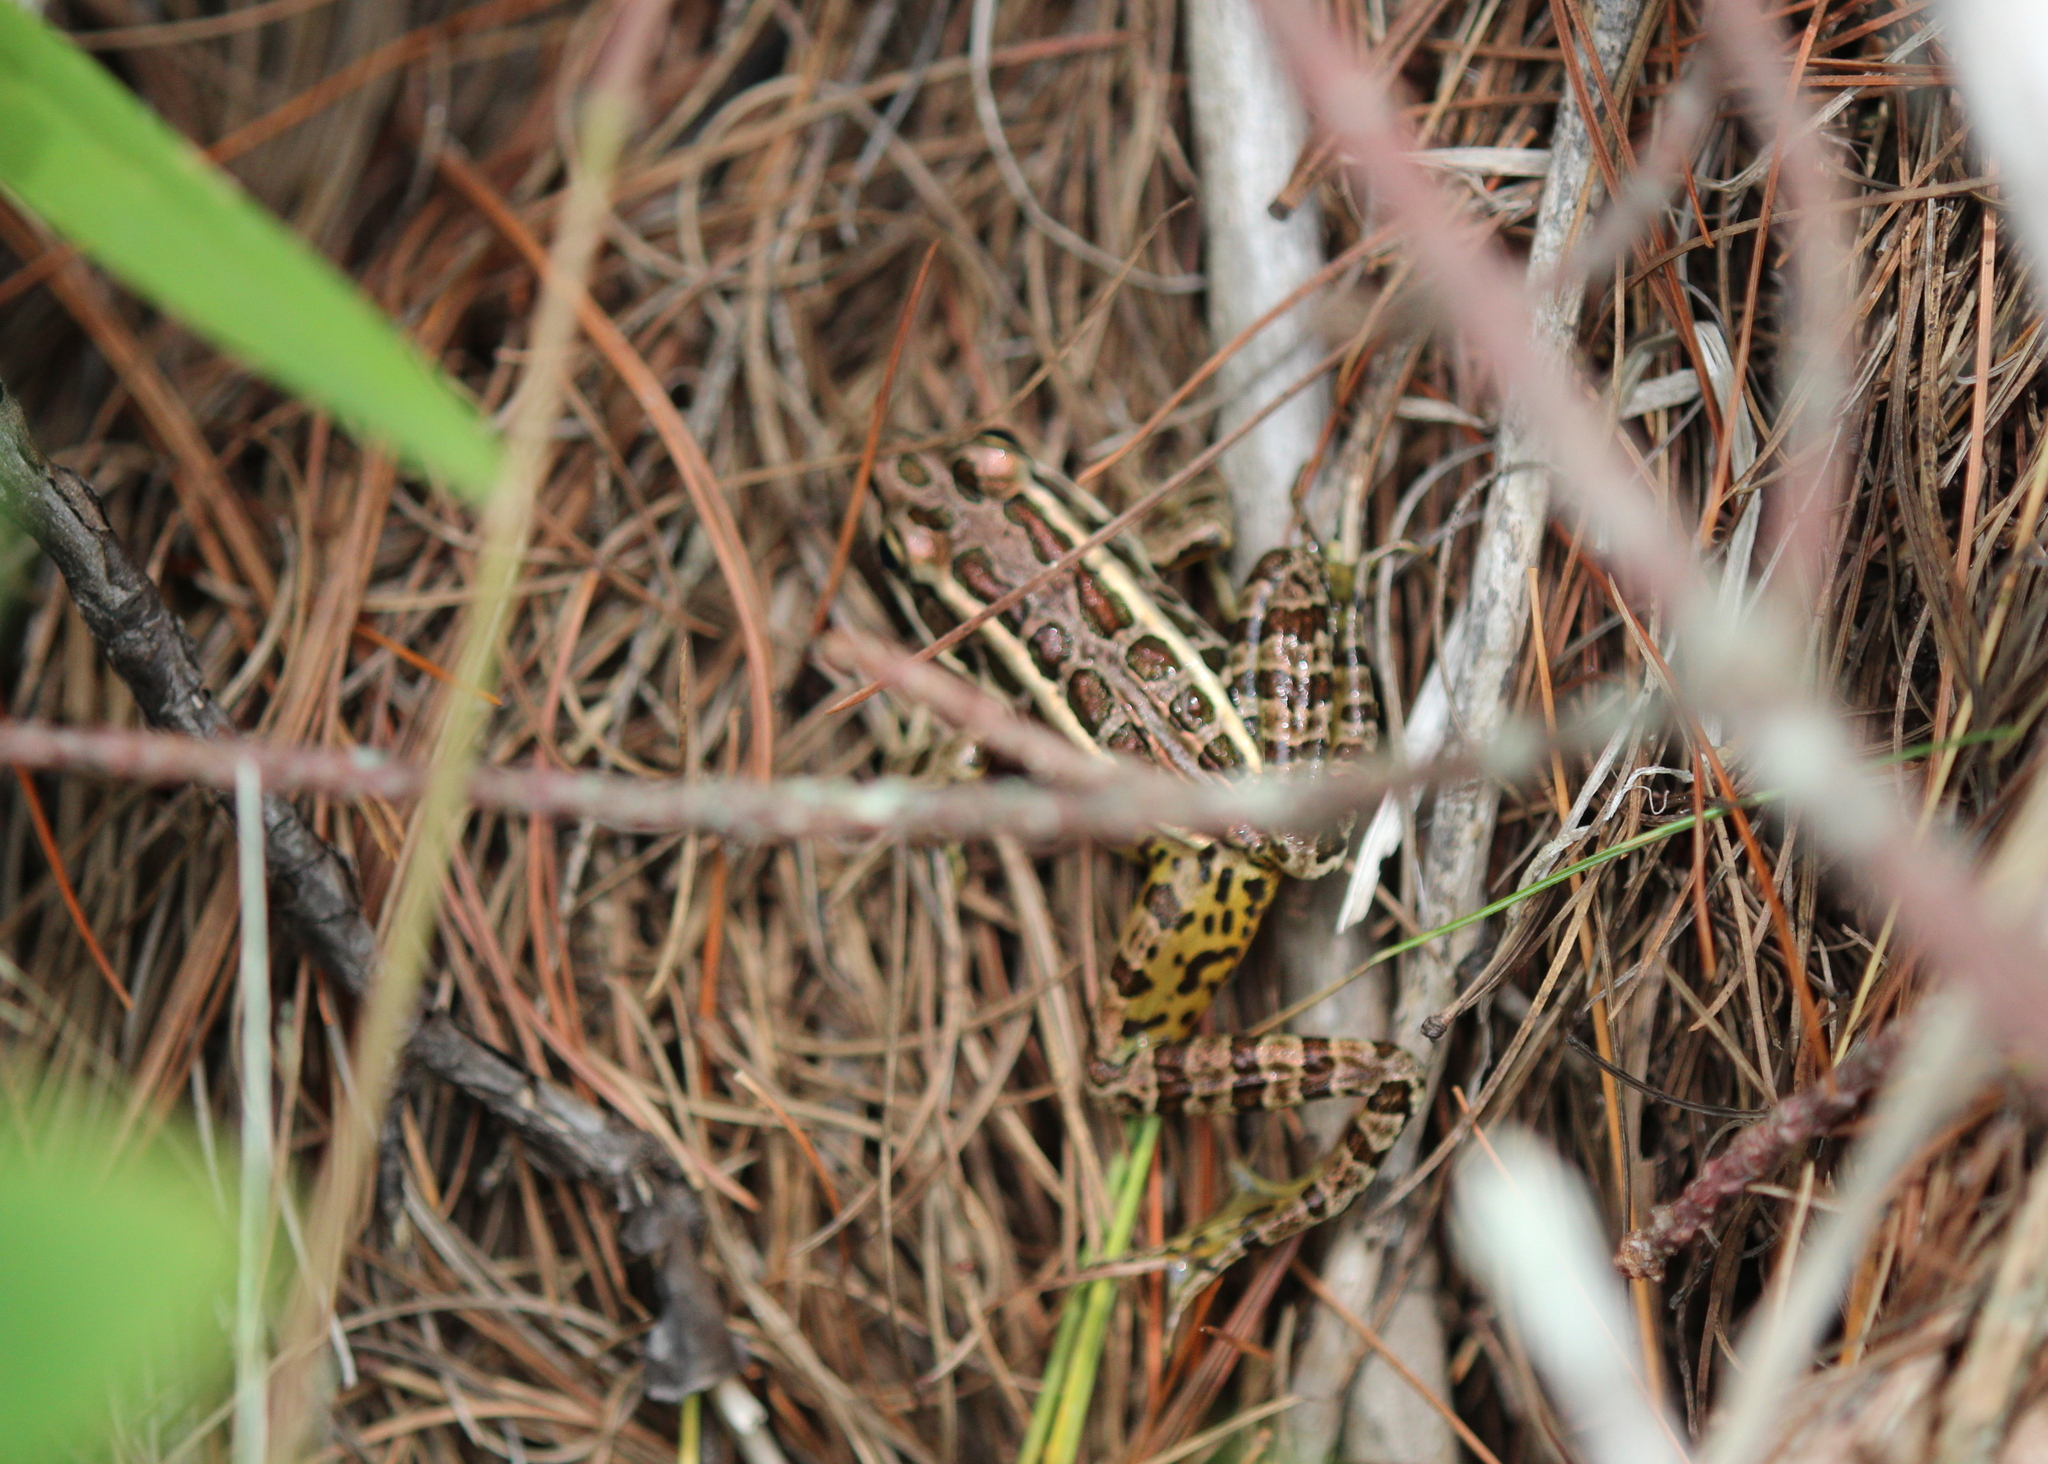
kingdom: Animalia
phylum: Chordata
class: Amphibia
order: Anura
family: Ranidae
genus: Lithobates
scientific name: Lithobates palustris
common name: Pickerel frog
